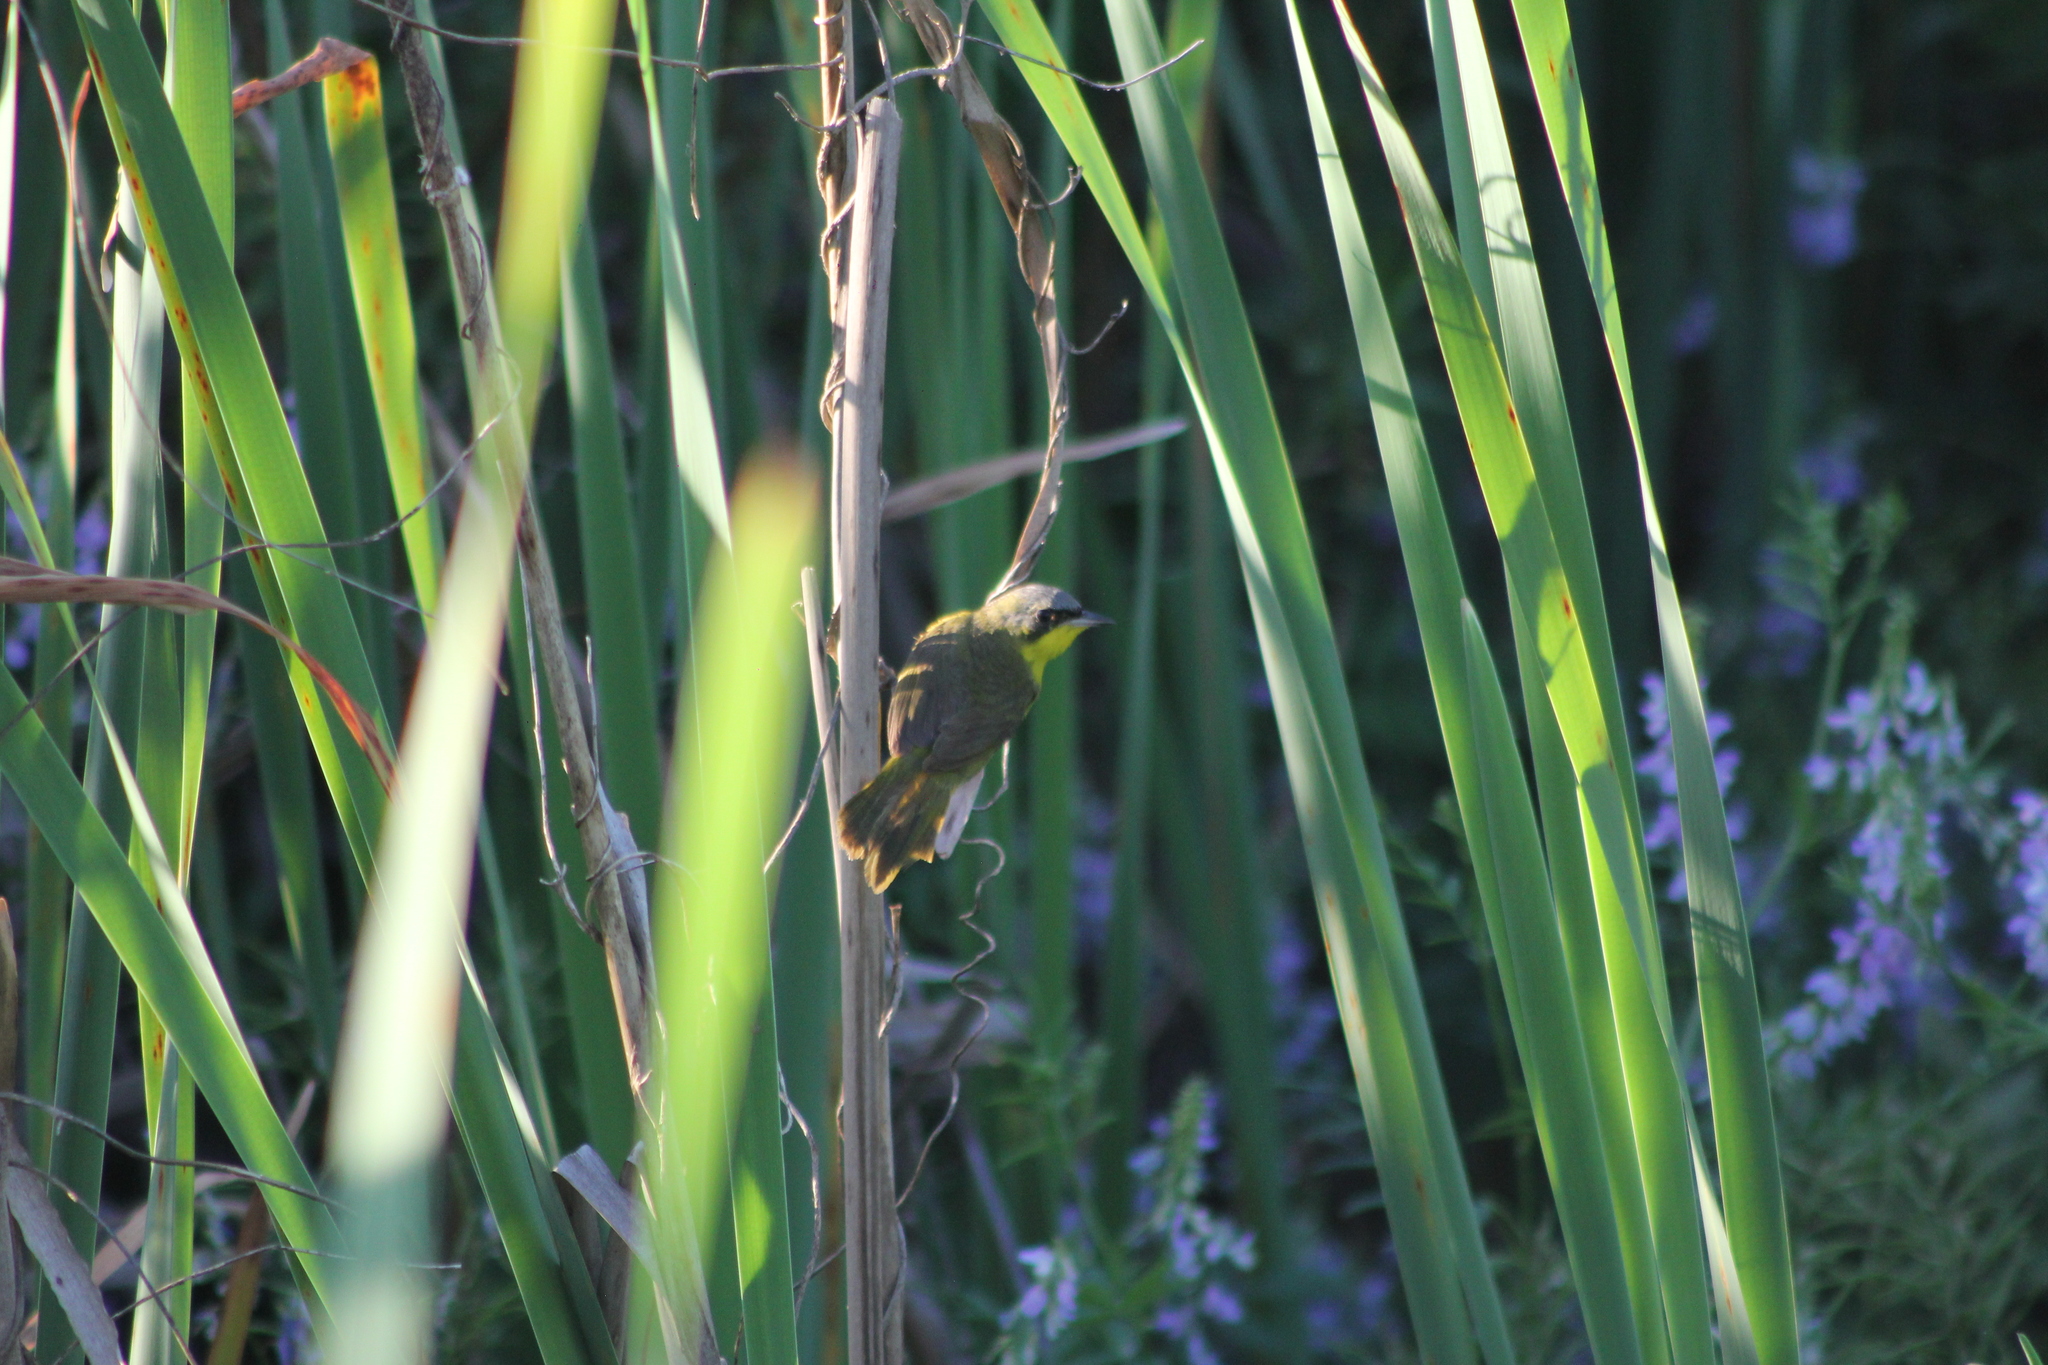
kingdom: Animalia
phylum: Chordata
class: Aves
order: Passeriformes
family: Parulidae
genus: Geothlypis
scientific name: Geothlypis velata
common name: Southern yellowthroat
